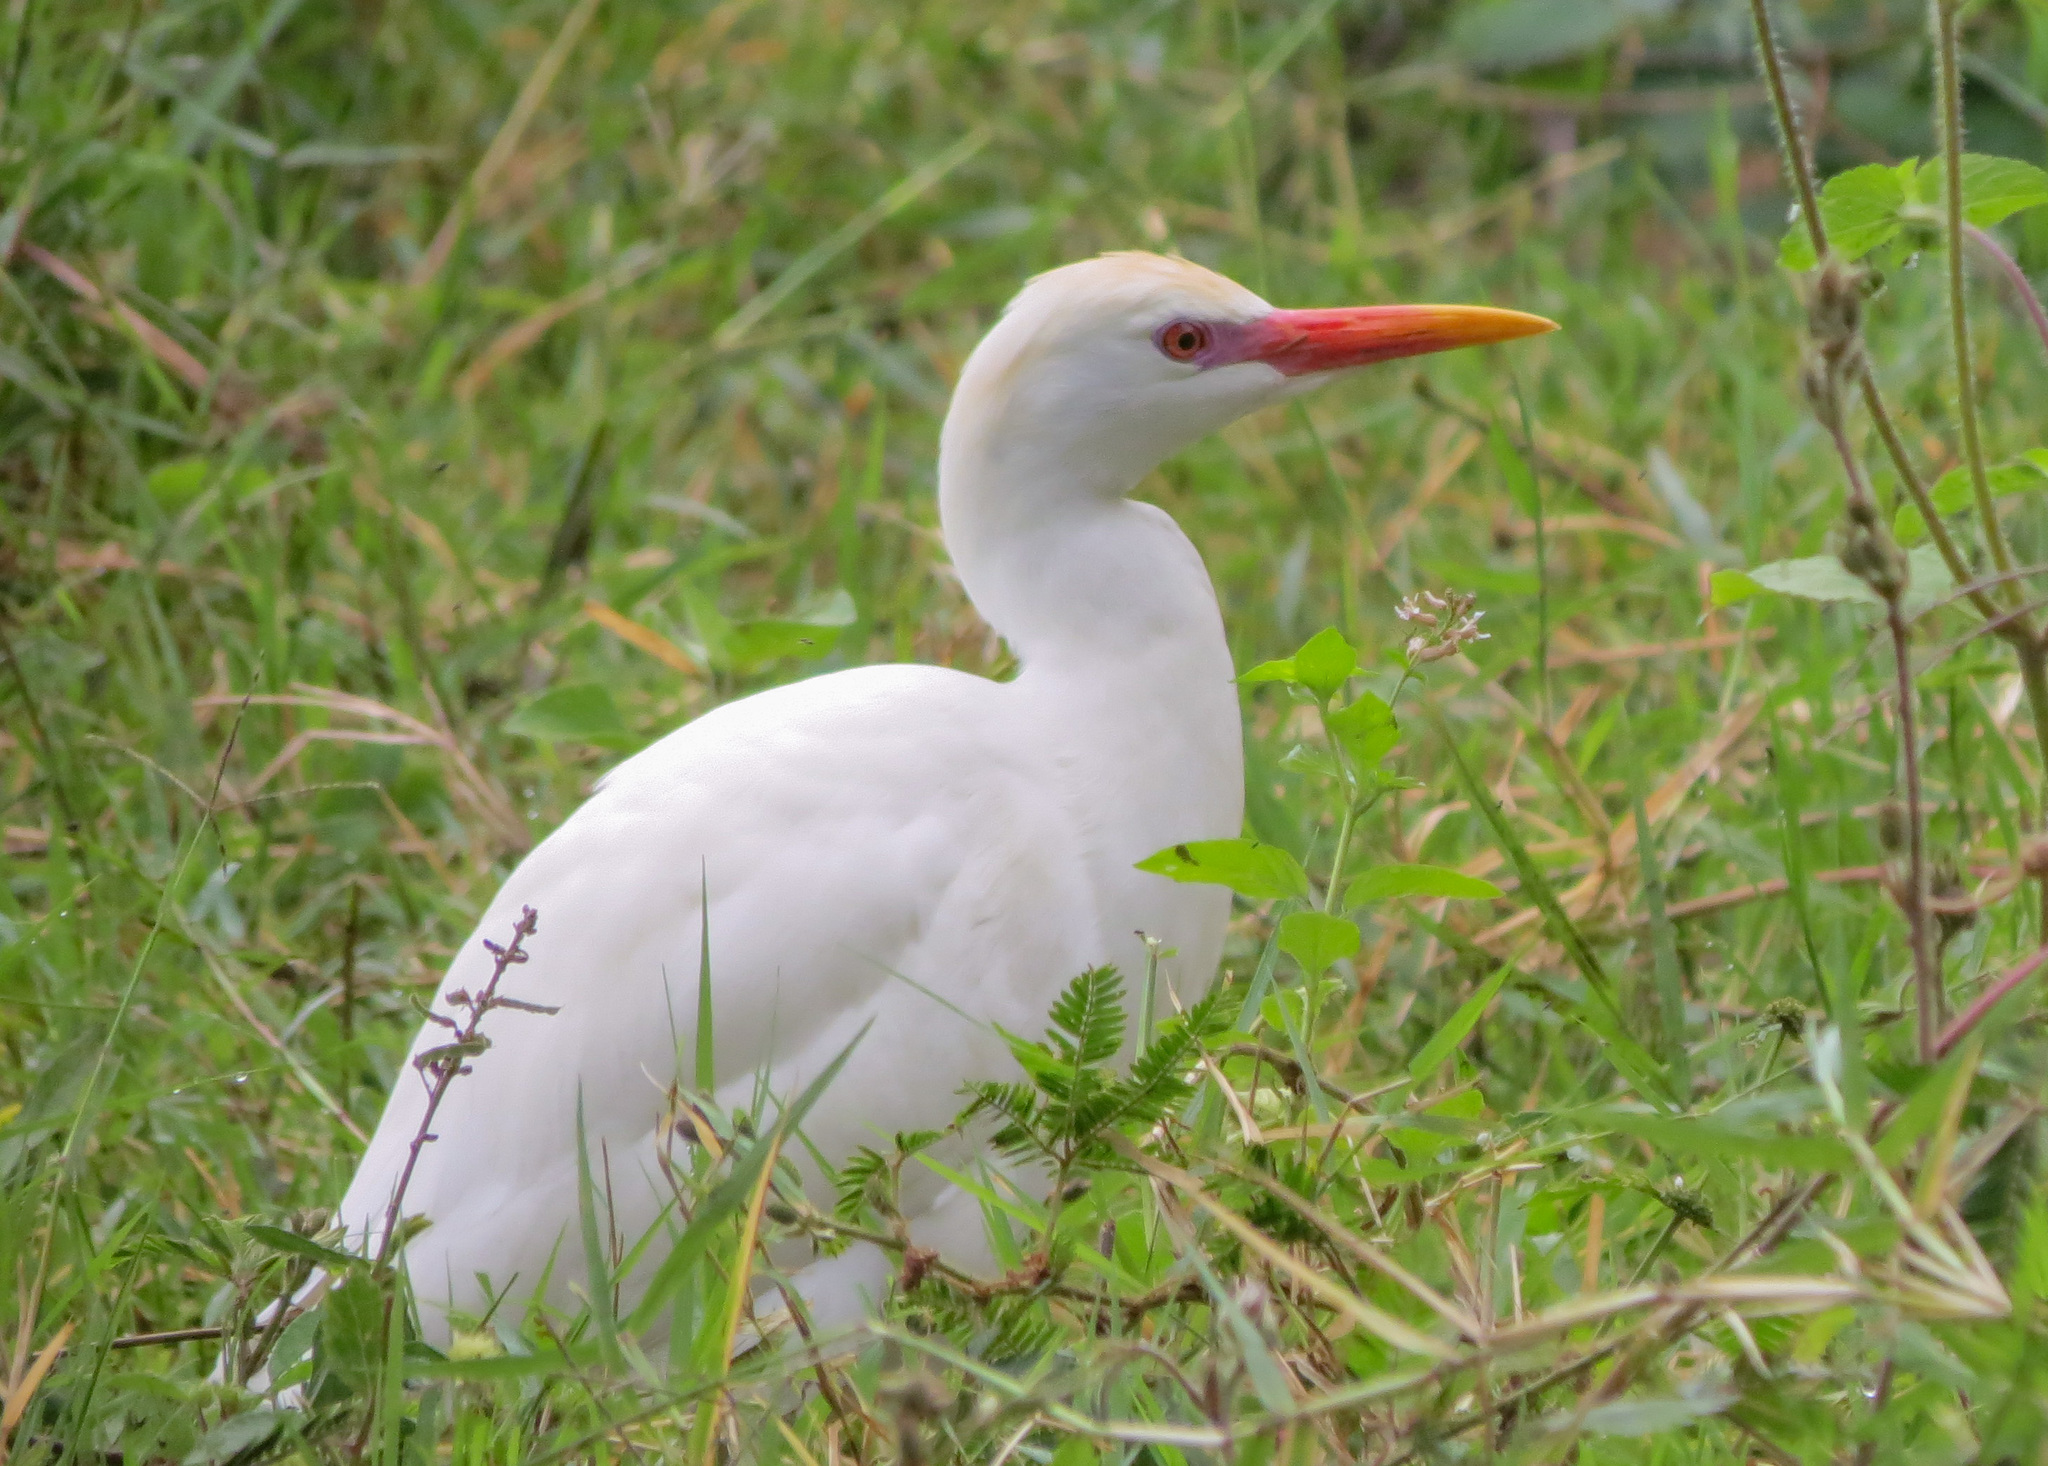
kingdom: Animalia
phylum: Chordata
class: Aves
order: Pelecaniformes
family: Ardeidae
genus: Bubulcus
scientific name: Bubulcus ibis
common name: Cattle egret
